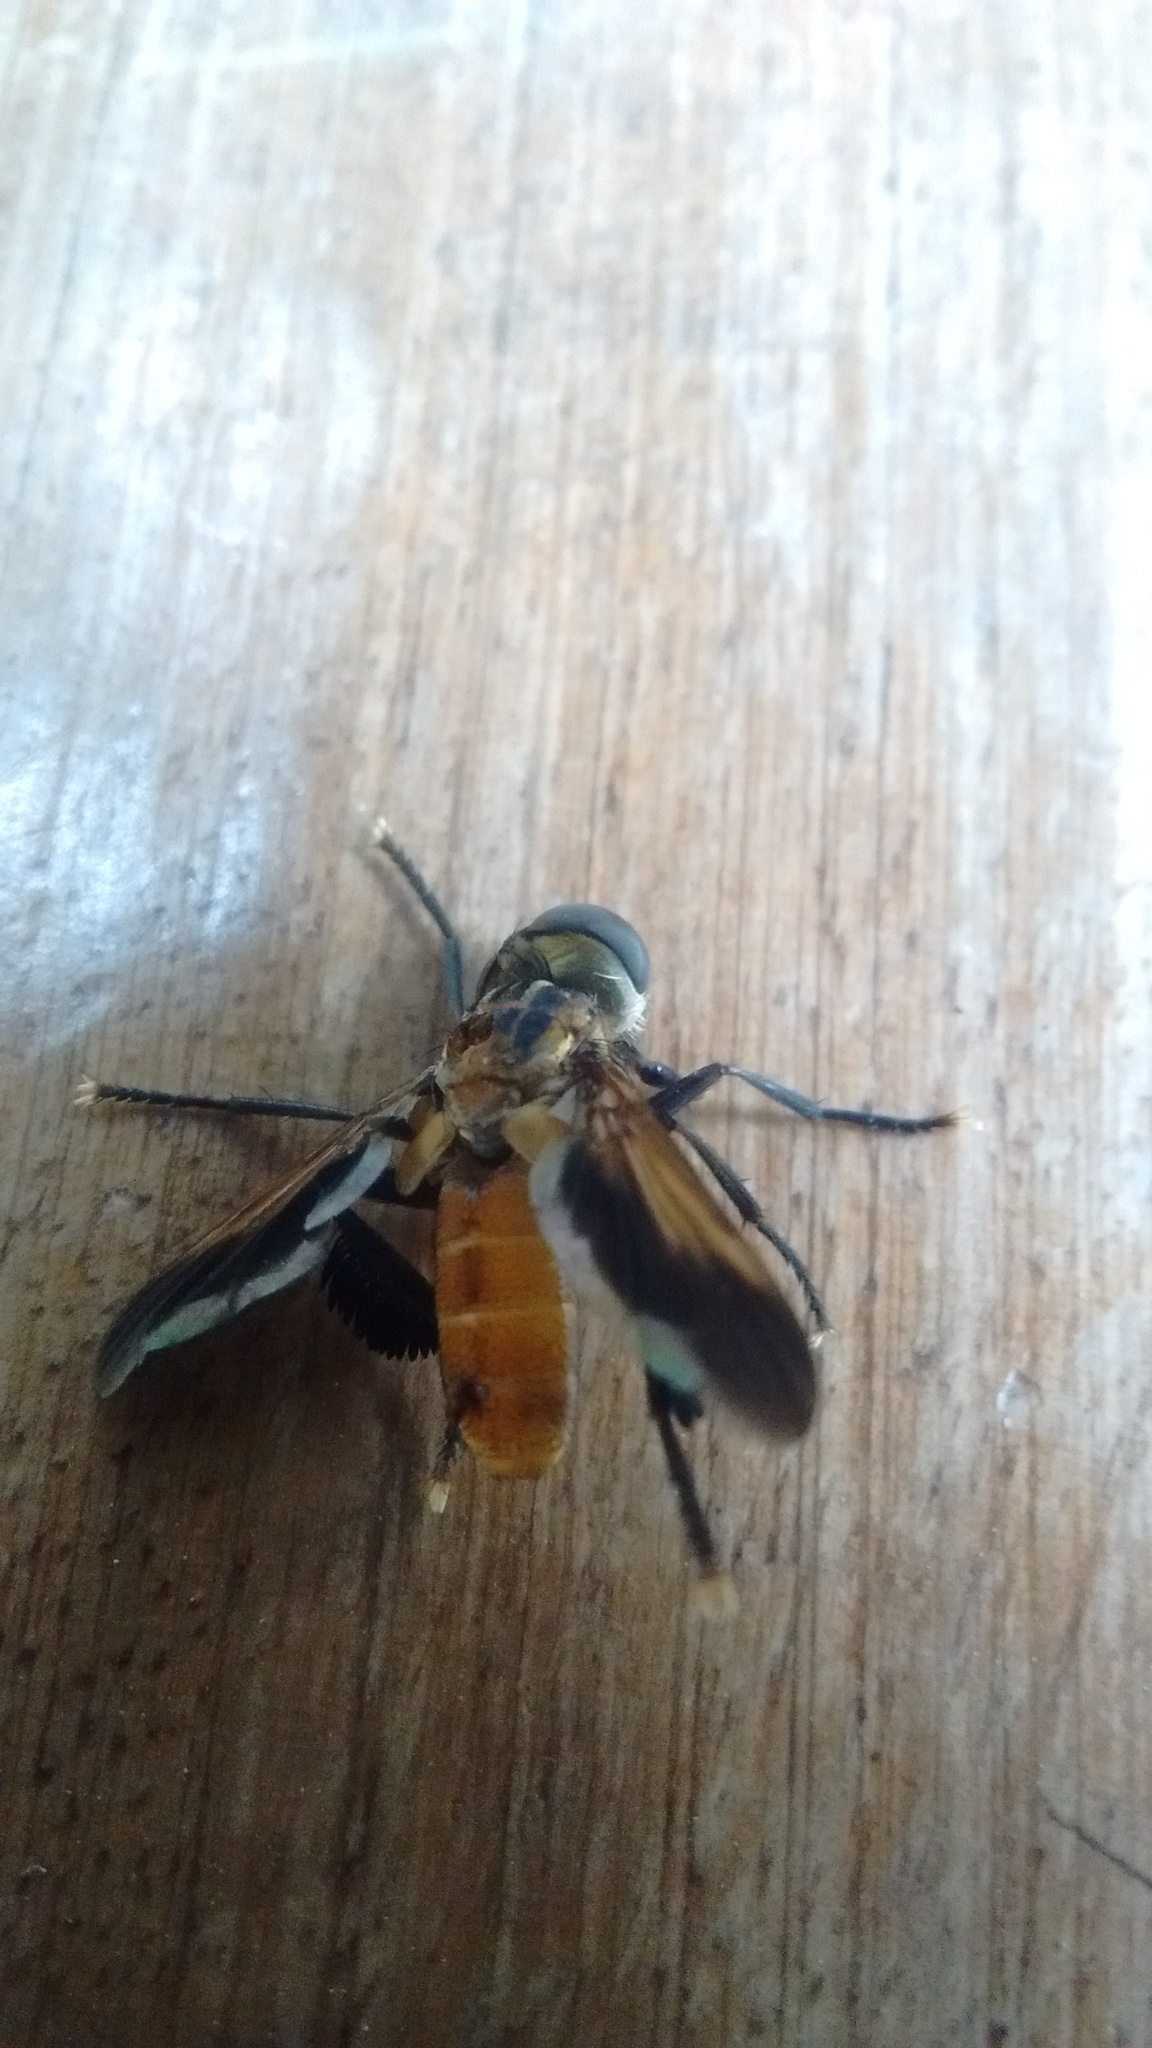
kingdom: Animalia
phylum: Arthropoda
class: Insecta
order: Diptera
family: Tachinidae
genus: Trichopoda
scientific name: Trichopoda pennipes
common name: Tachinid fly
